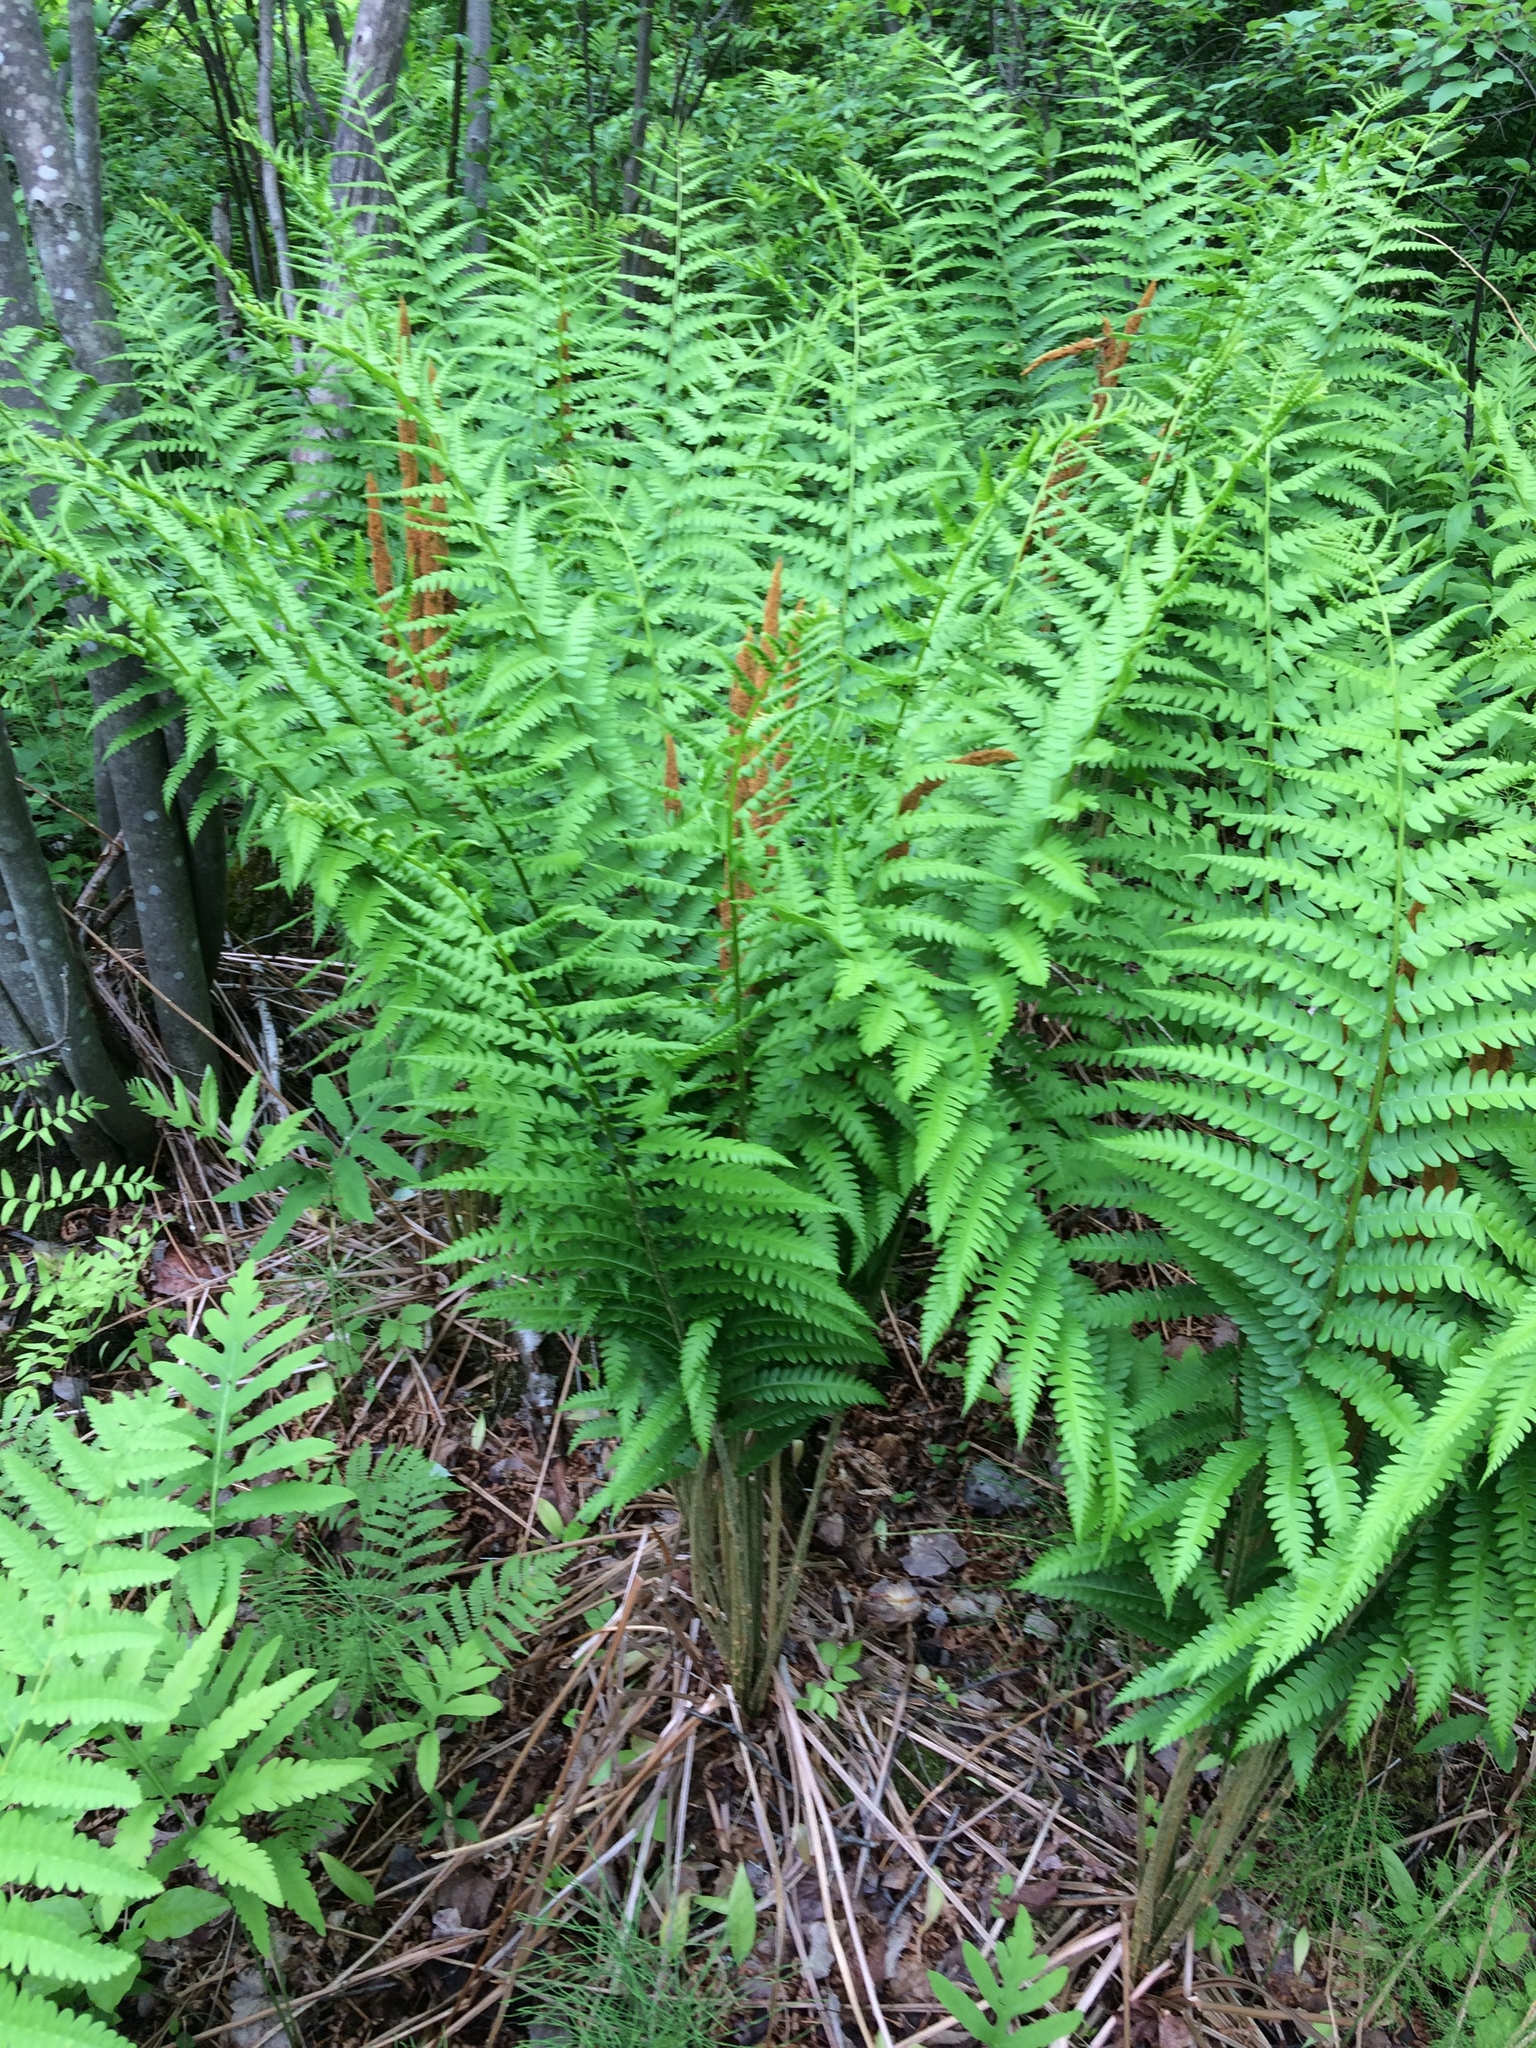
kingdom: Plantae
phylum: Tracheophyta
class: Polypodiopsida
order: Osmundales
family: Osmundaceae
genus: Osmundastrum
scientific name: Osmundastrum cinnamomeum
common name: Cinnamon fern
